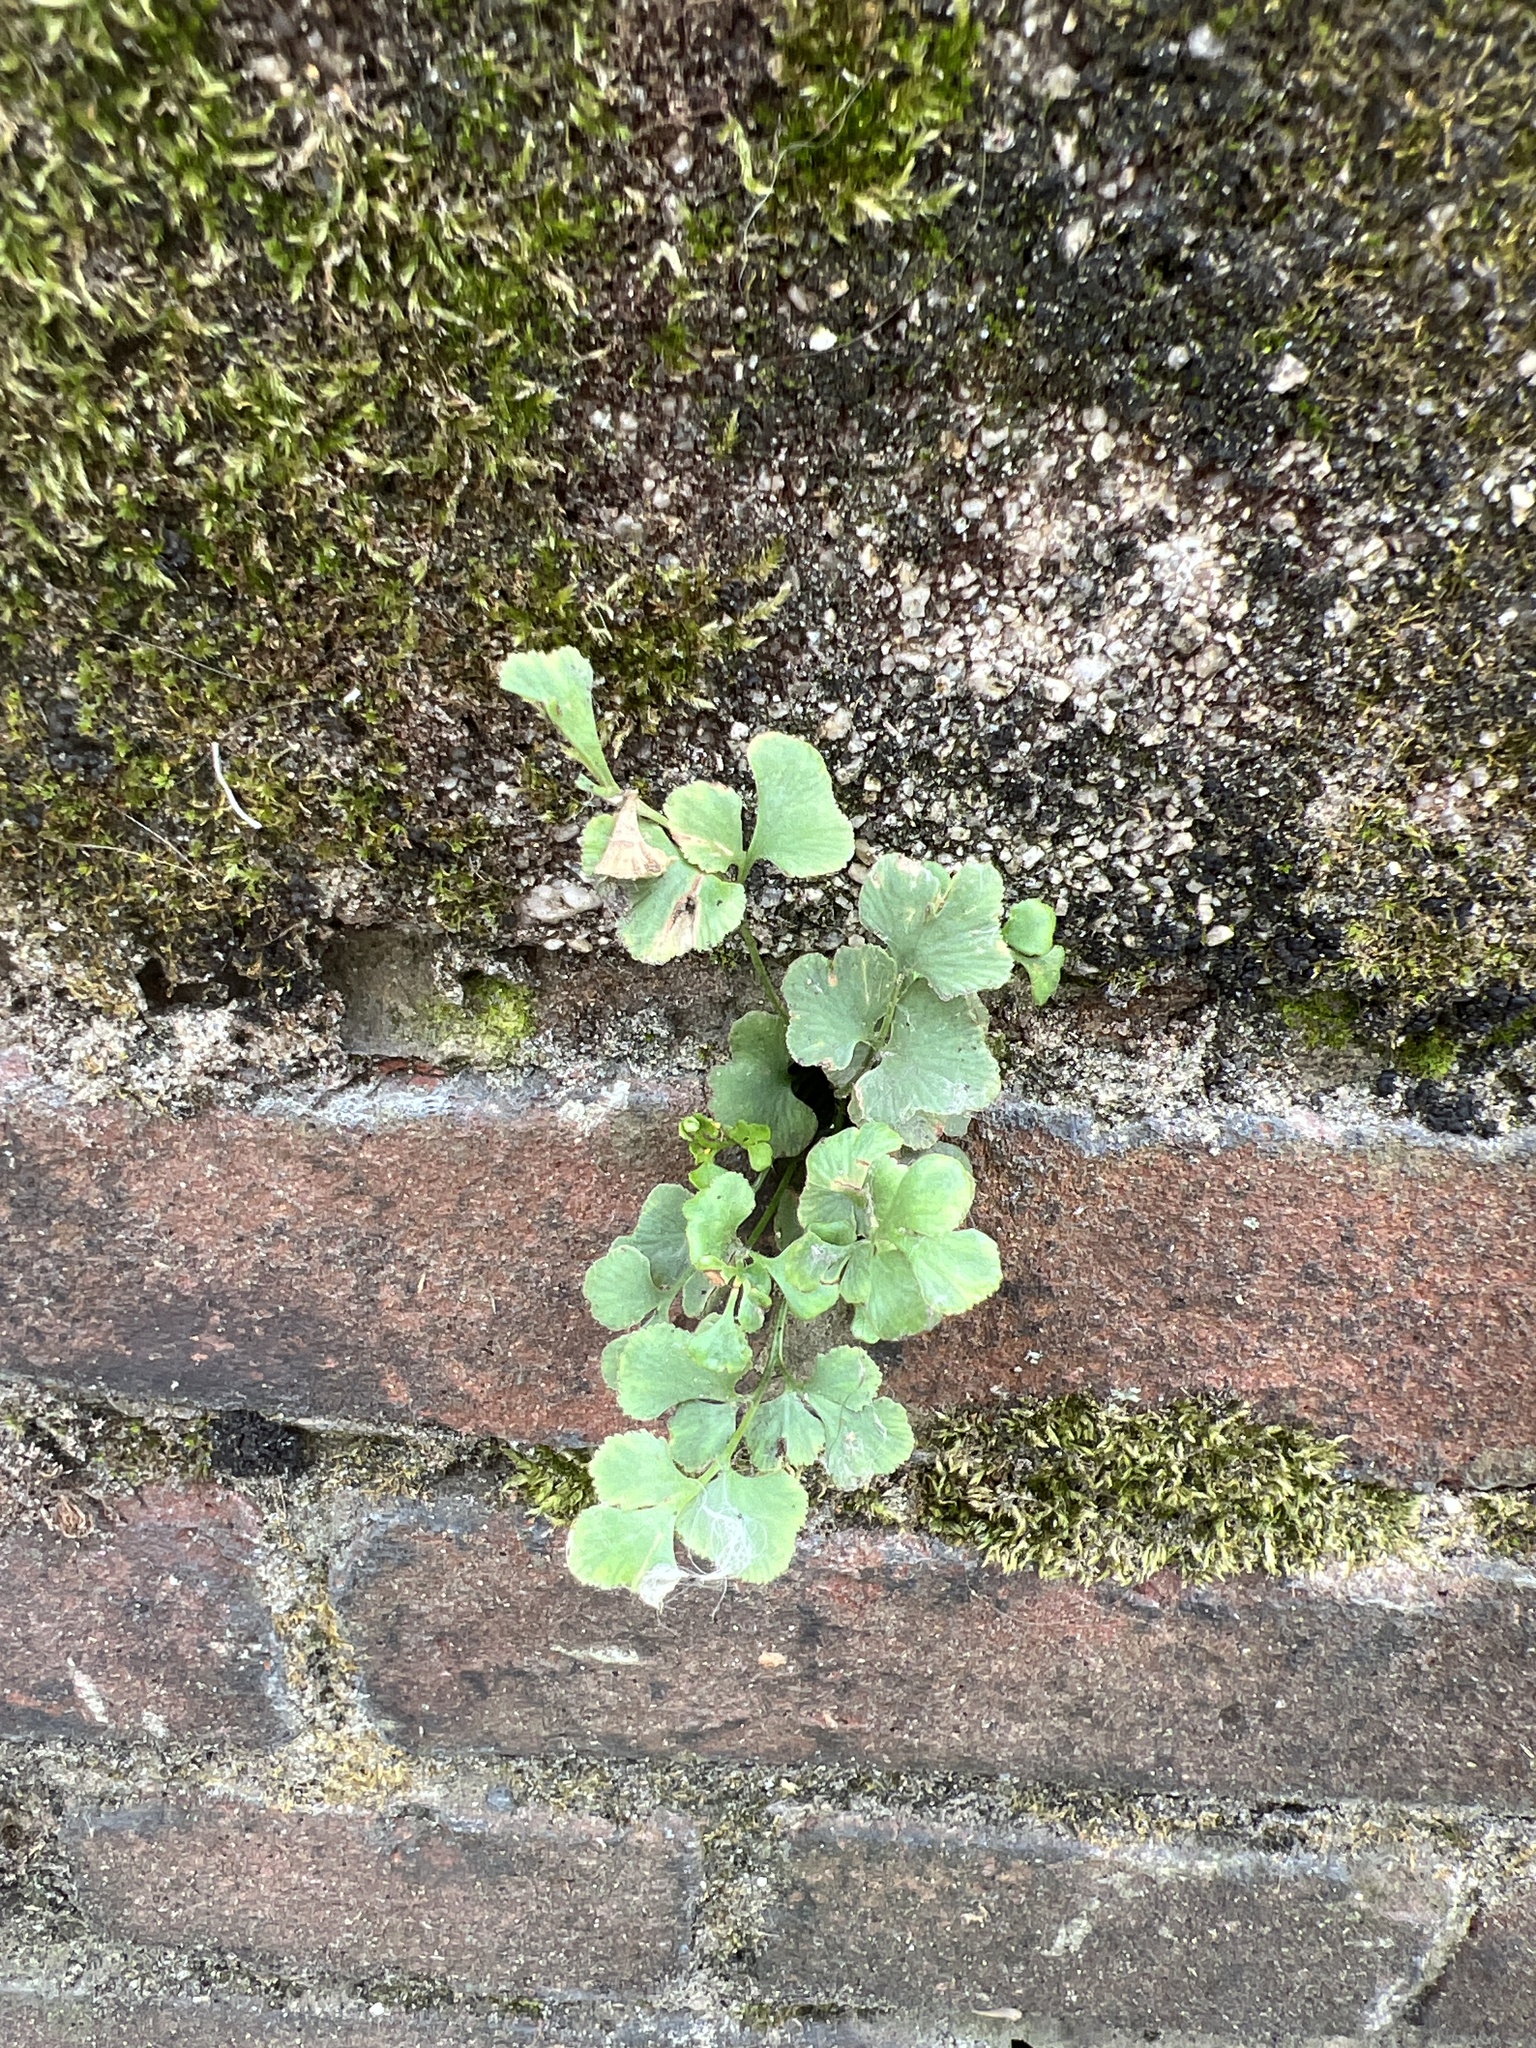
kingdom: Plantae
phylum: Tracheophyta
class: Polypodiopsida
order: Polypodiales
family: Aspleniaceae
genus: Asplenium
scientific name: Asplenium ruta-muraria
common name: Wall-rue
